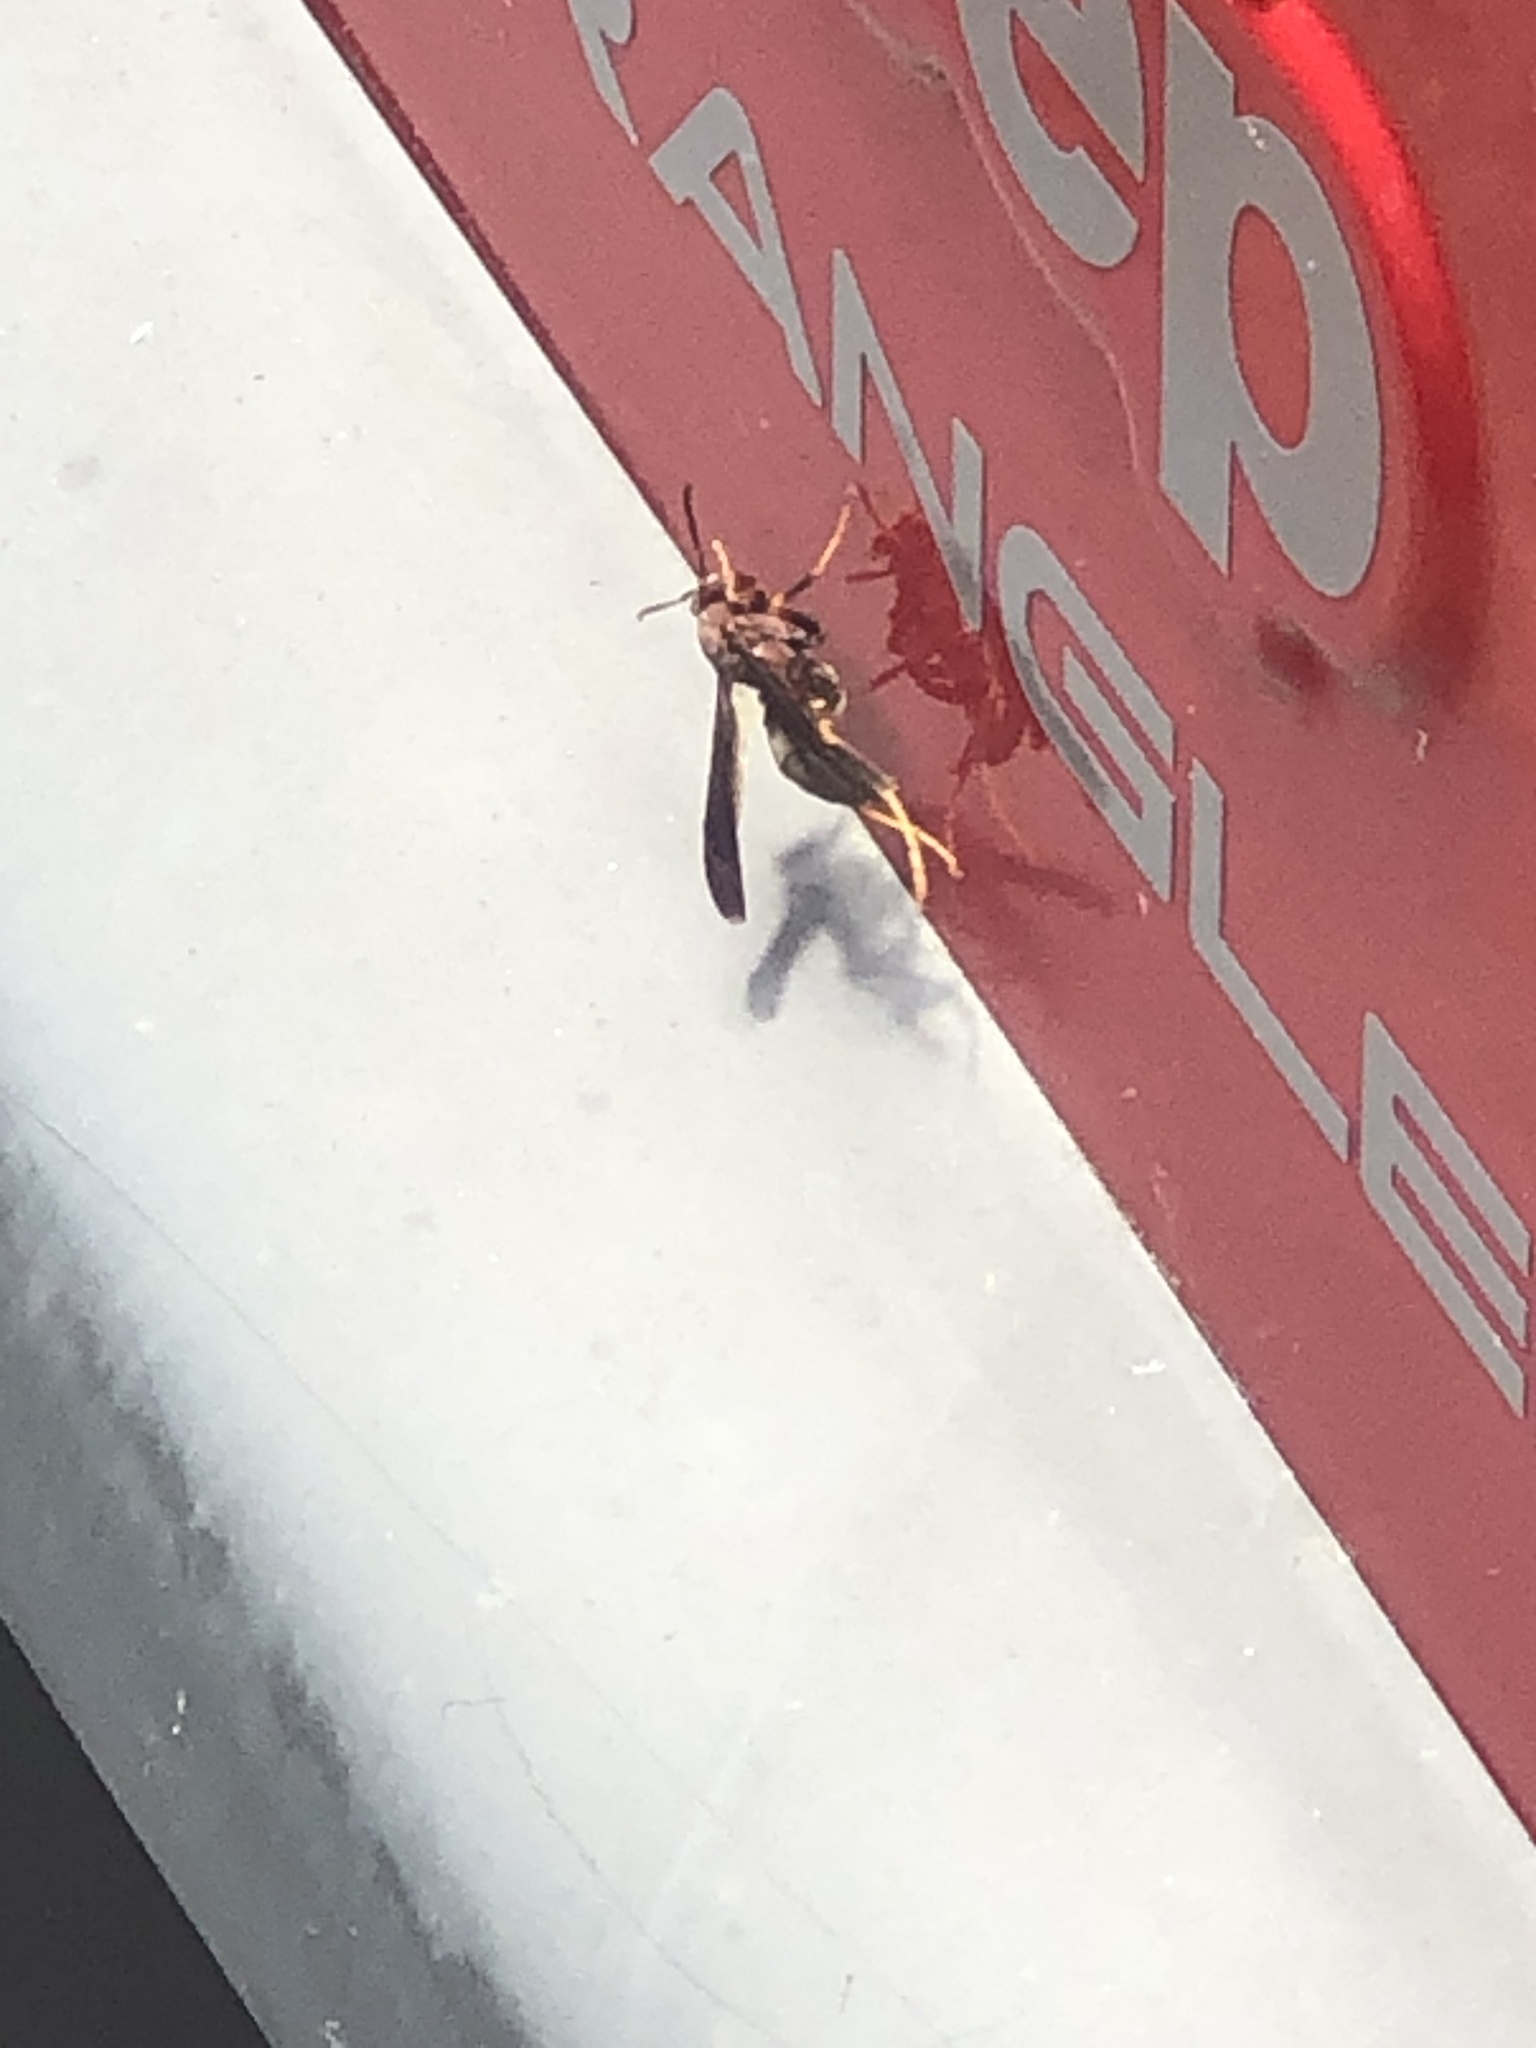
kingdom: Animalia
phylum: Arthropoda
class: Insecta
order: Hymenoptera
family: Eumenidae
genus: Polistes
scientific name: Polistes metricus
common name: Metric paper wasp
